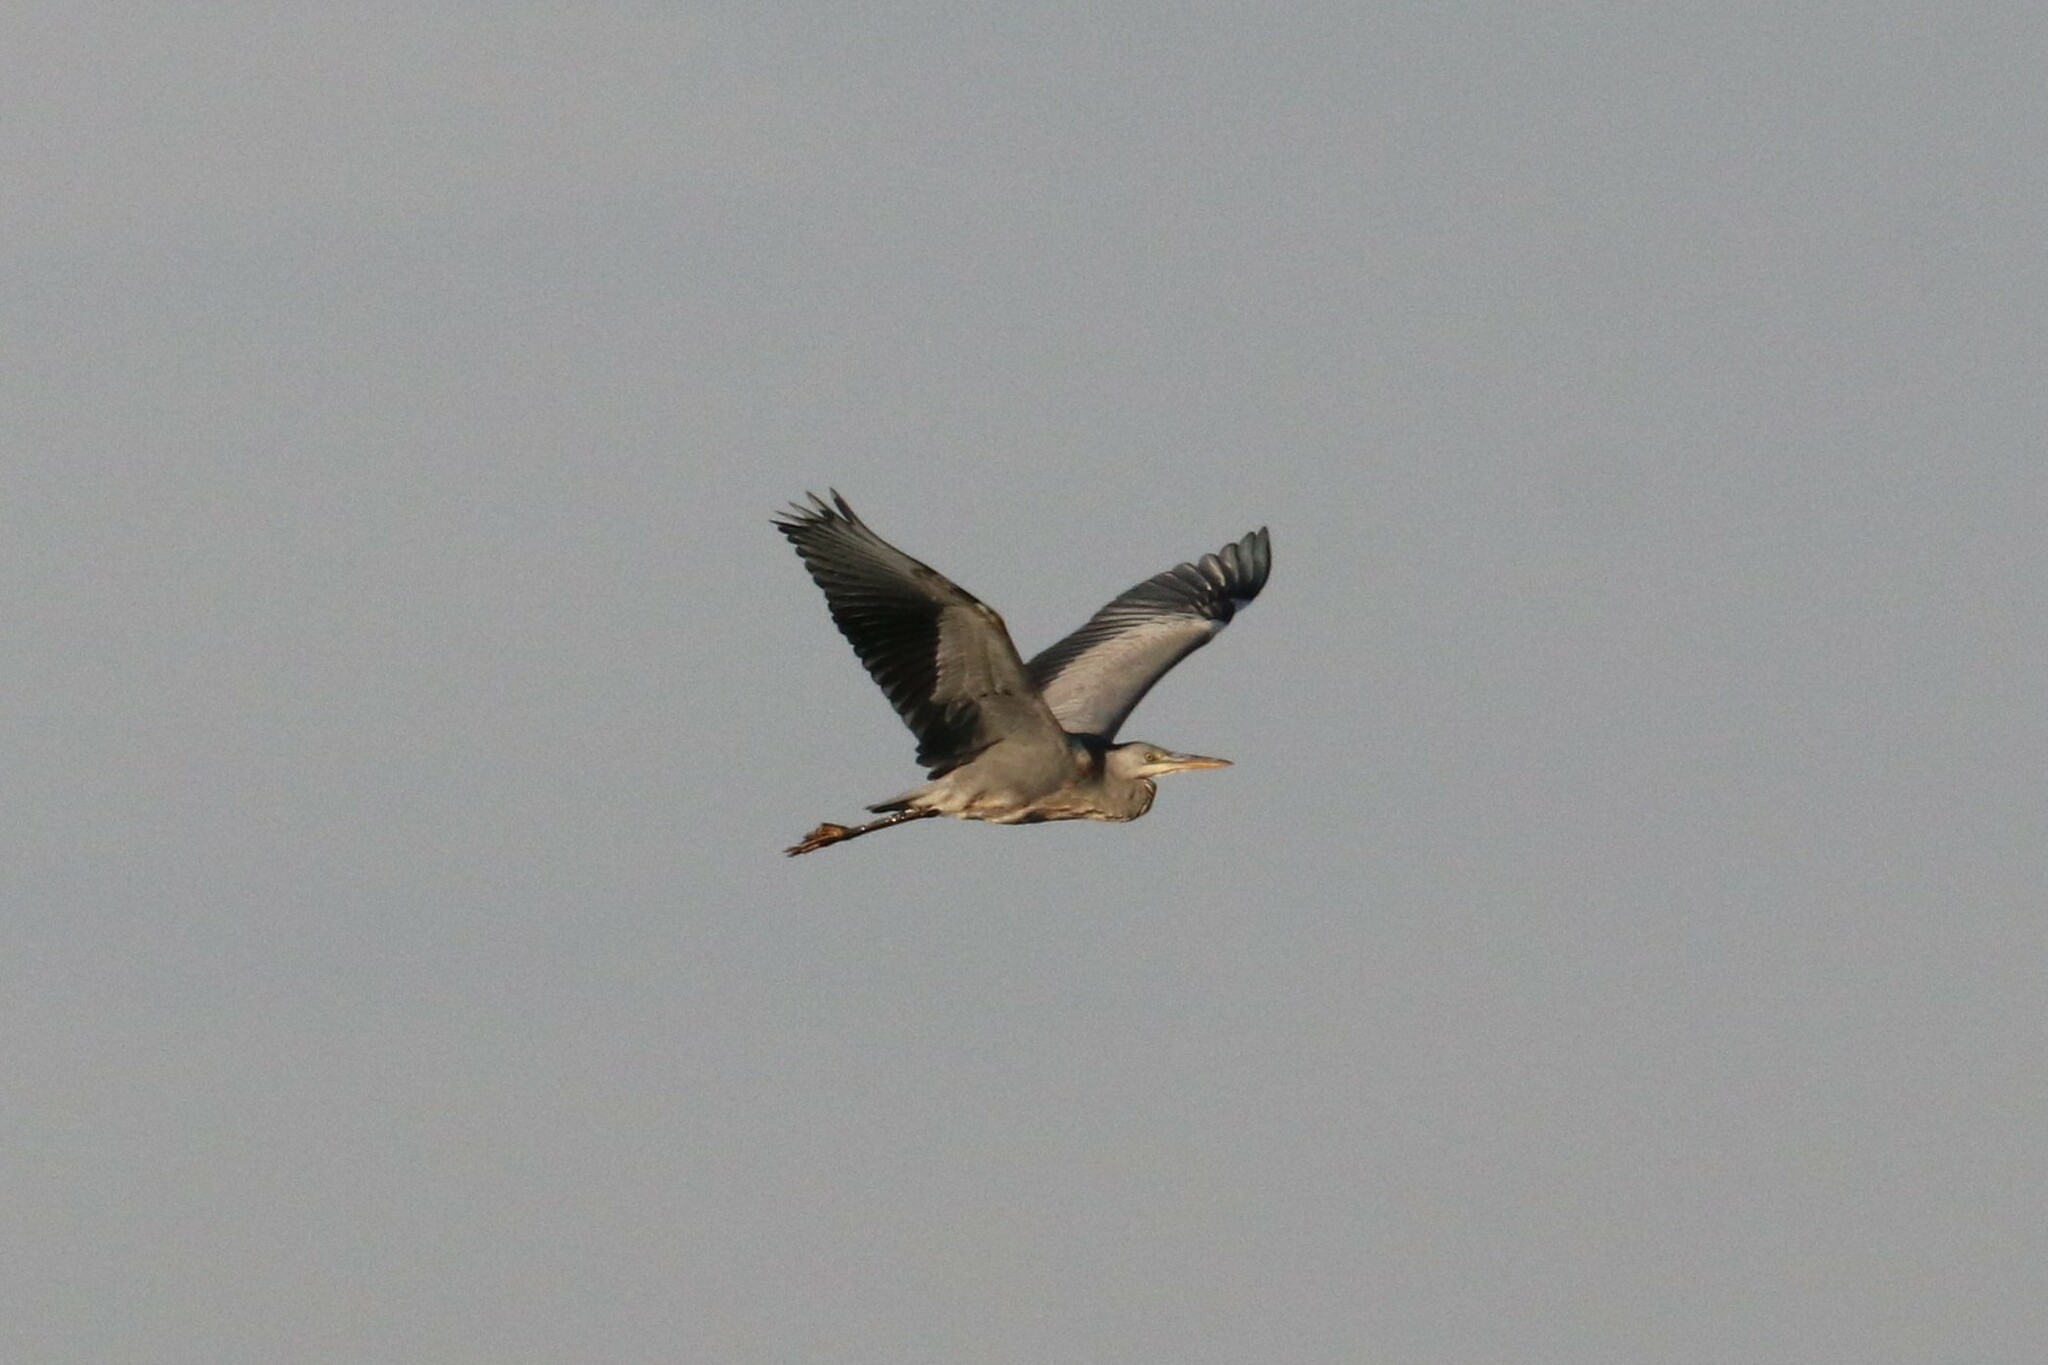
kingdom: Animalia
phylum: Chordata
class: Aves
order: Pelecaniformes
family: Ardeidae
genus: Ardea
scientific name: Ardea cinerea
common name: Grey heron
